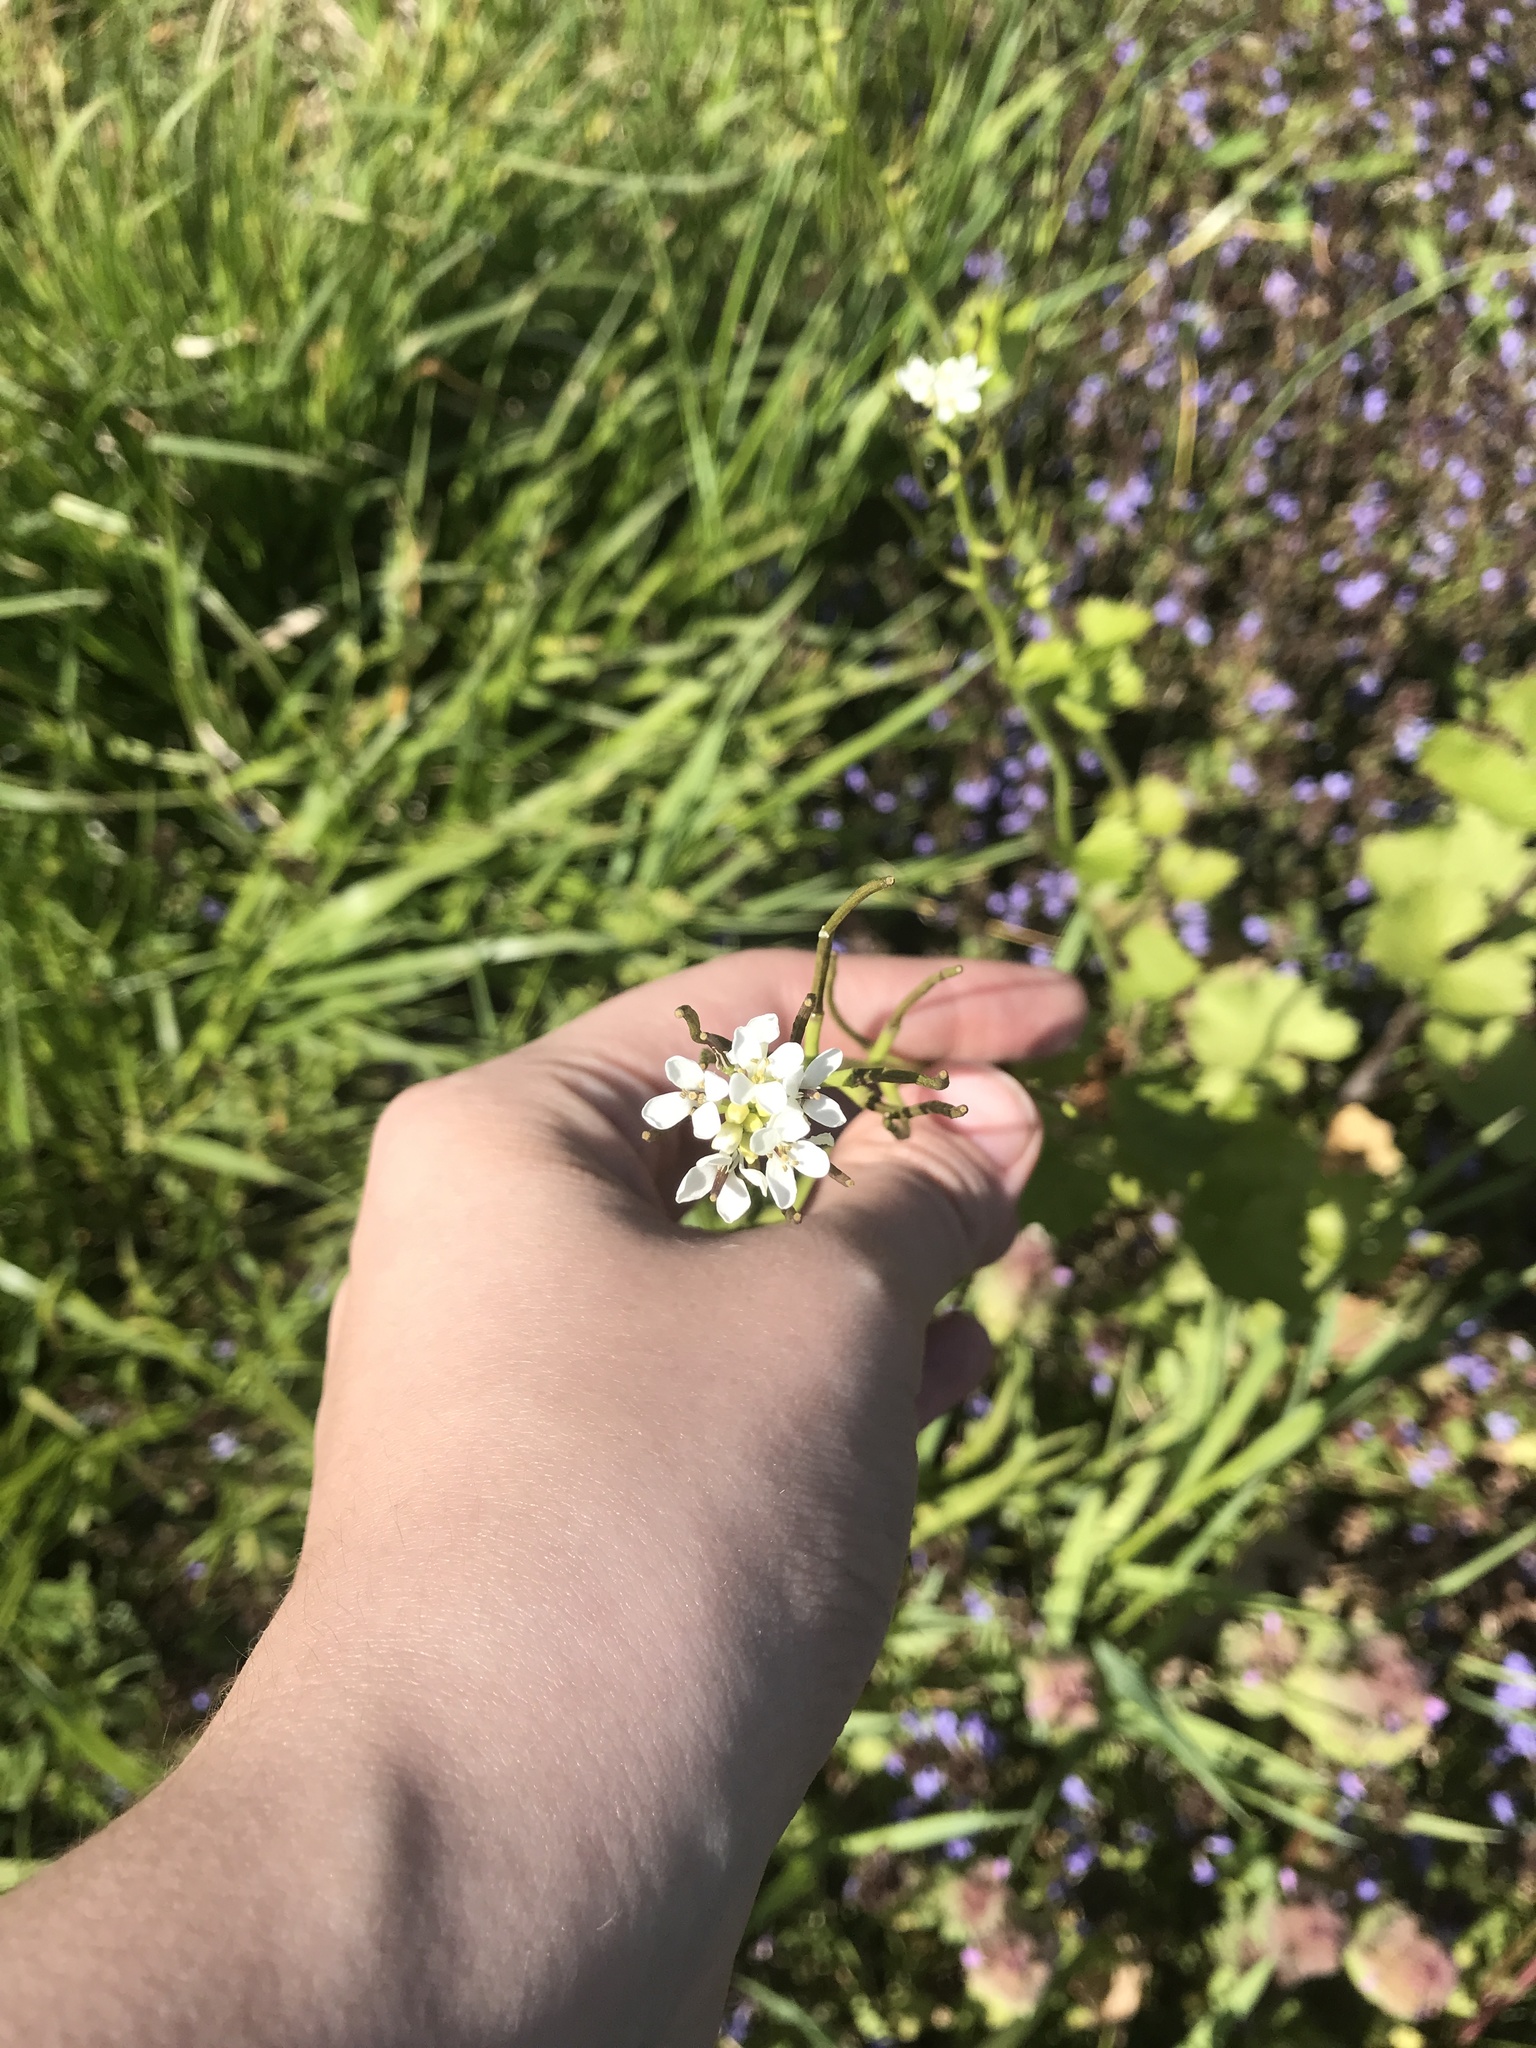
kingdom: Plantae
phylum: Tracheophyta
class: Magnoliopsida
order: Brassicales
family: Brassicaceae
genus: Alliaria
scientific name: Alliaria petiolata
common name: Garlic mustard
